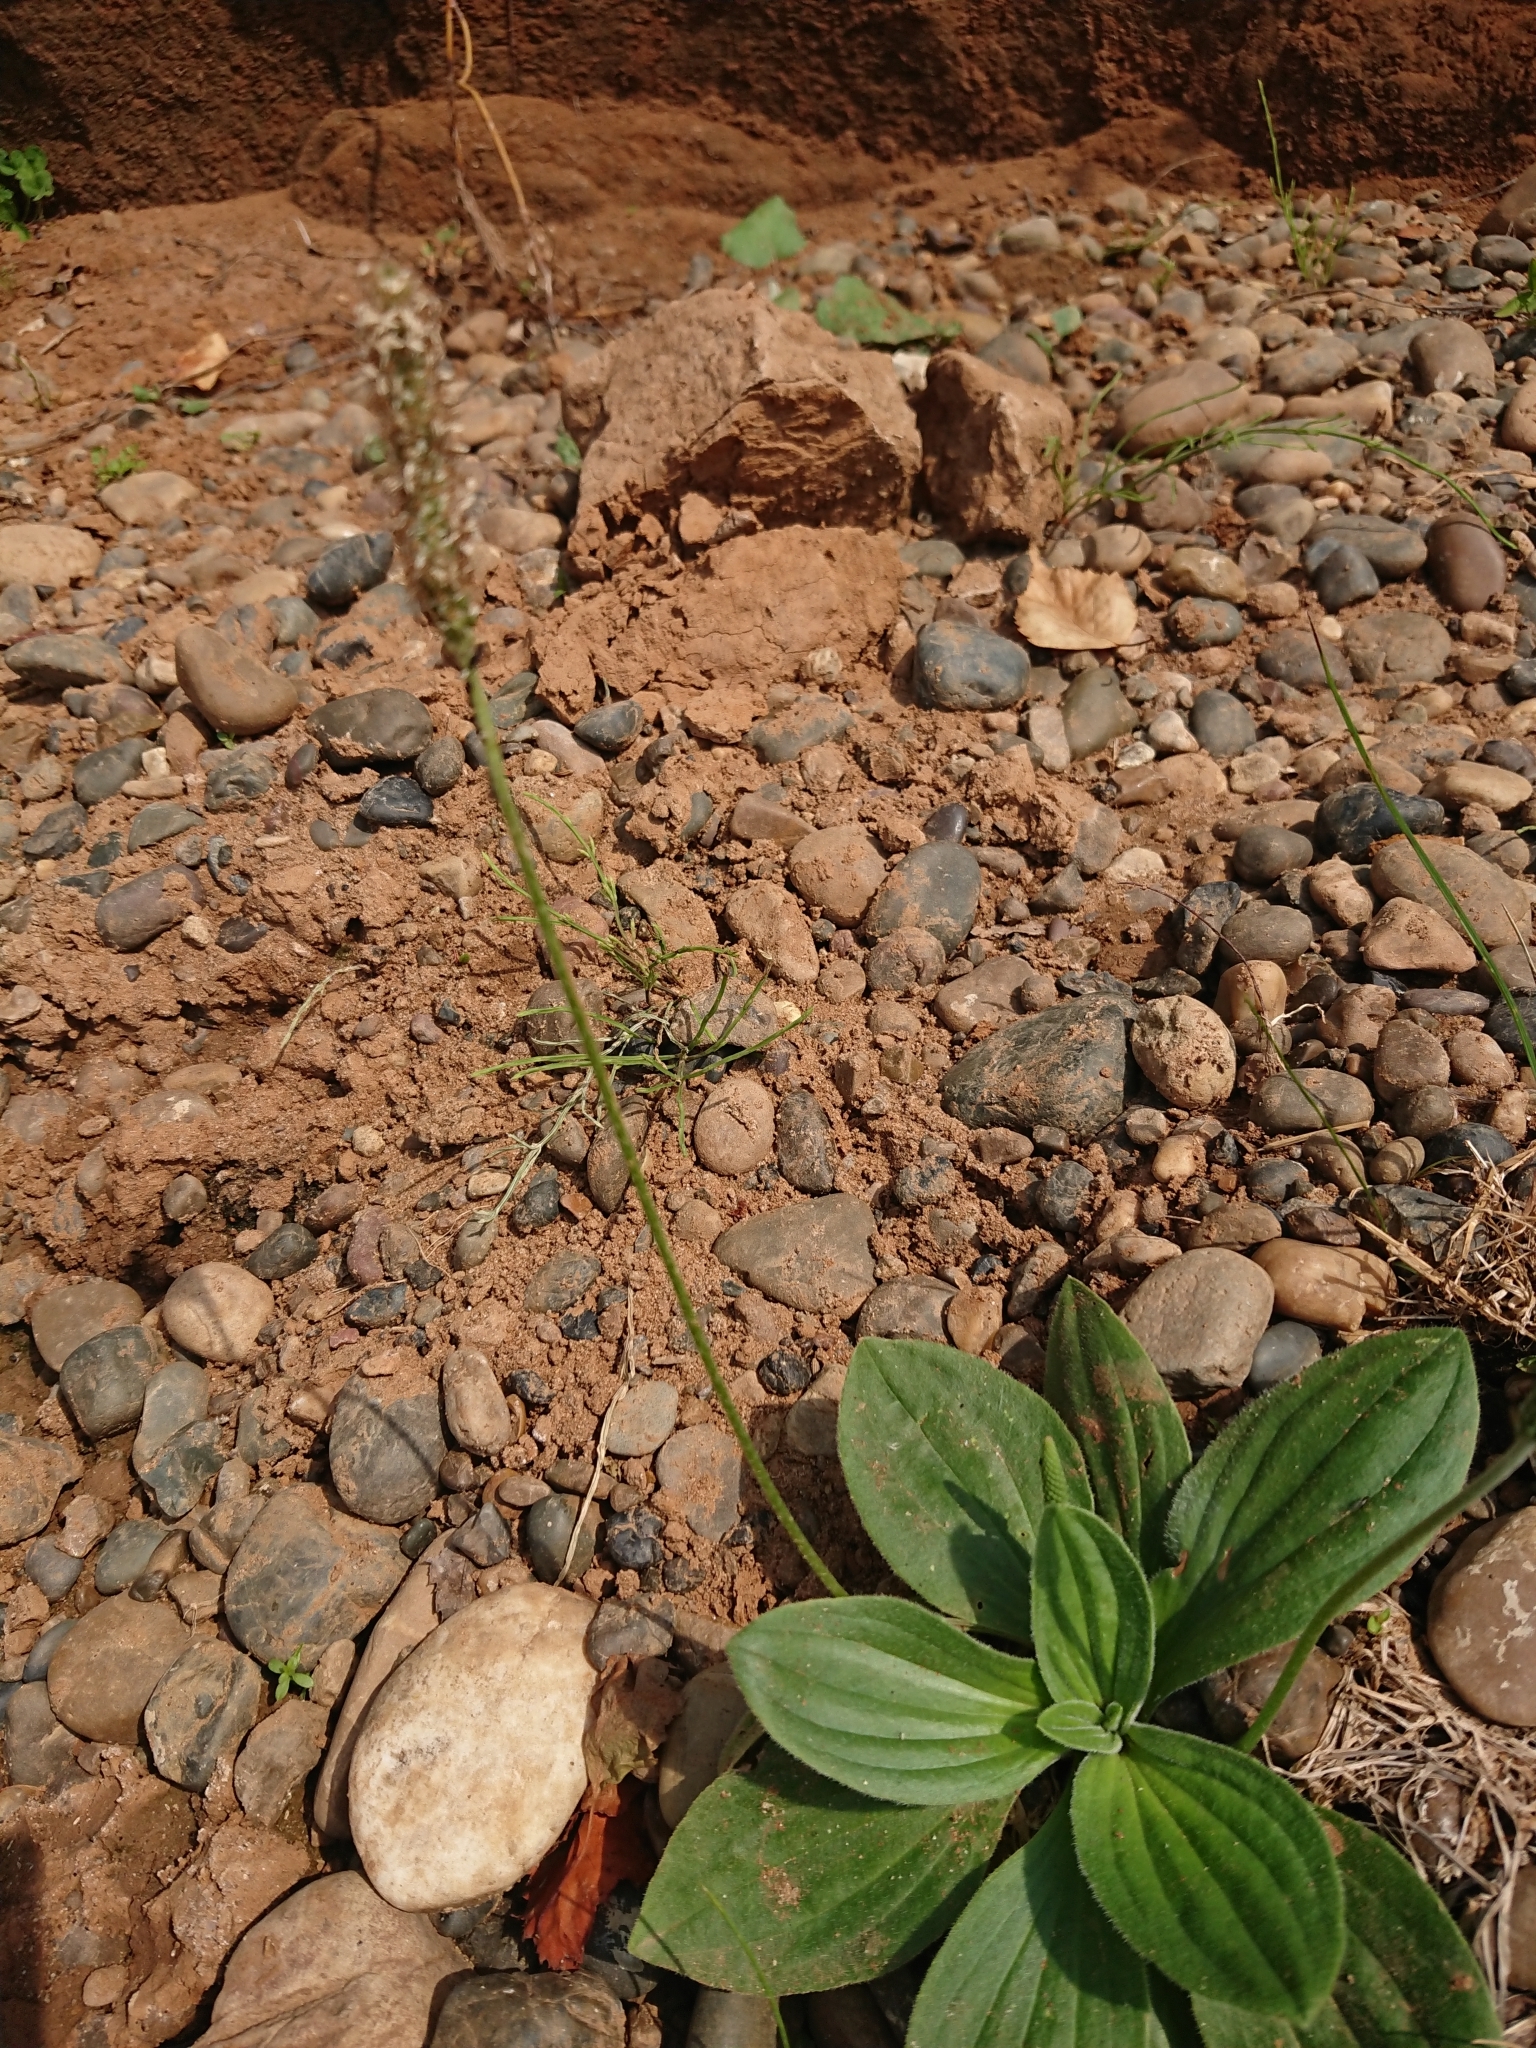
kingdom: Plantae
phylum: Tracheophyta
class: Magnoliopsida
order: Lamiales
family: Plantaginaceae
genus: Plantago
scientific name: Plantago media
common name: Hoary plantain
